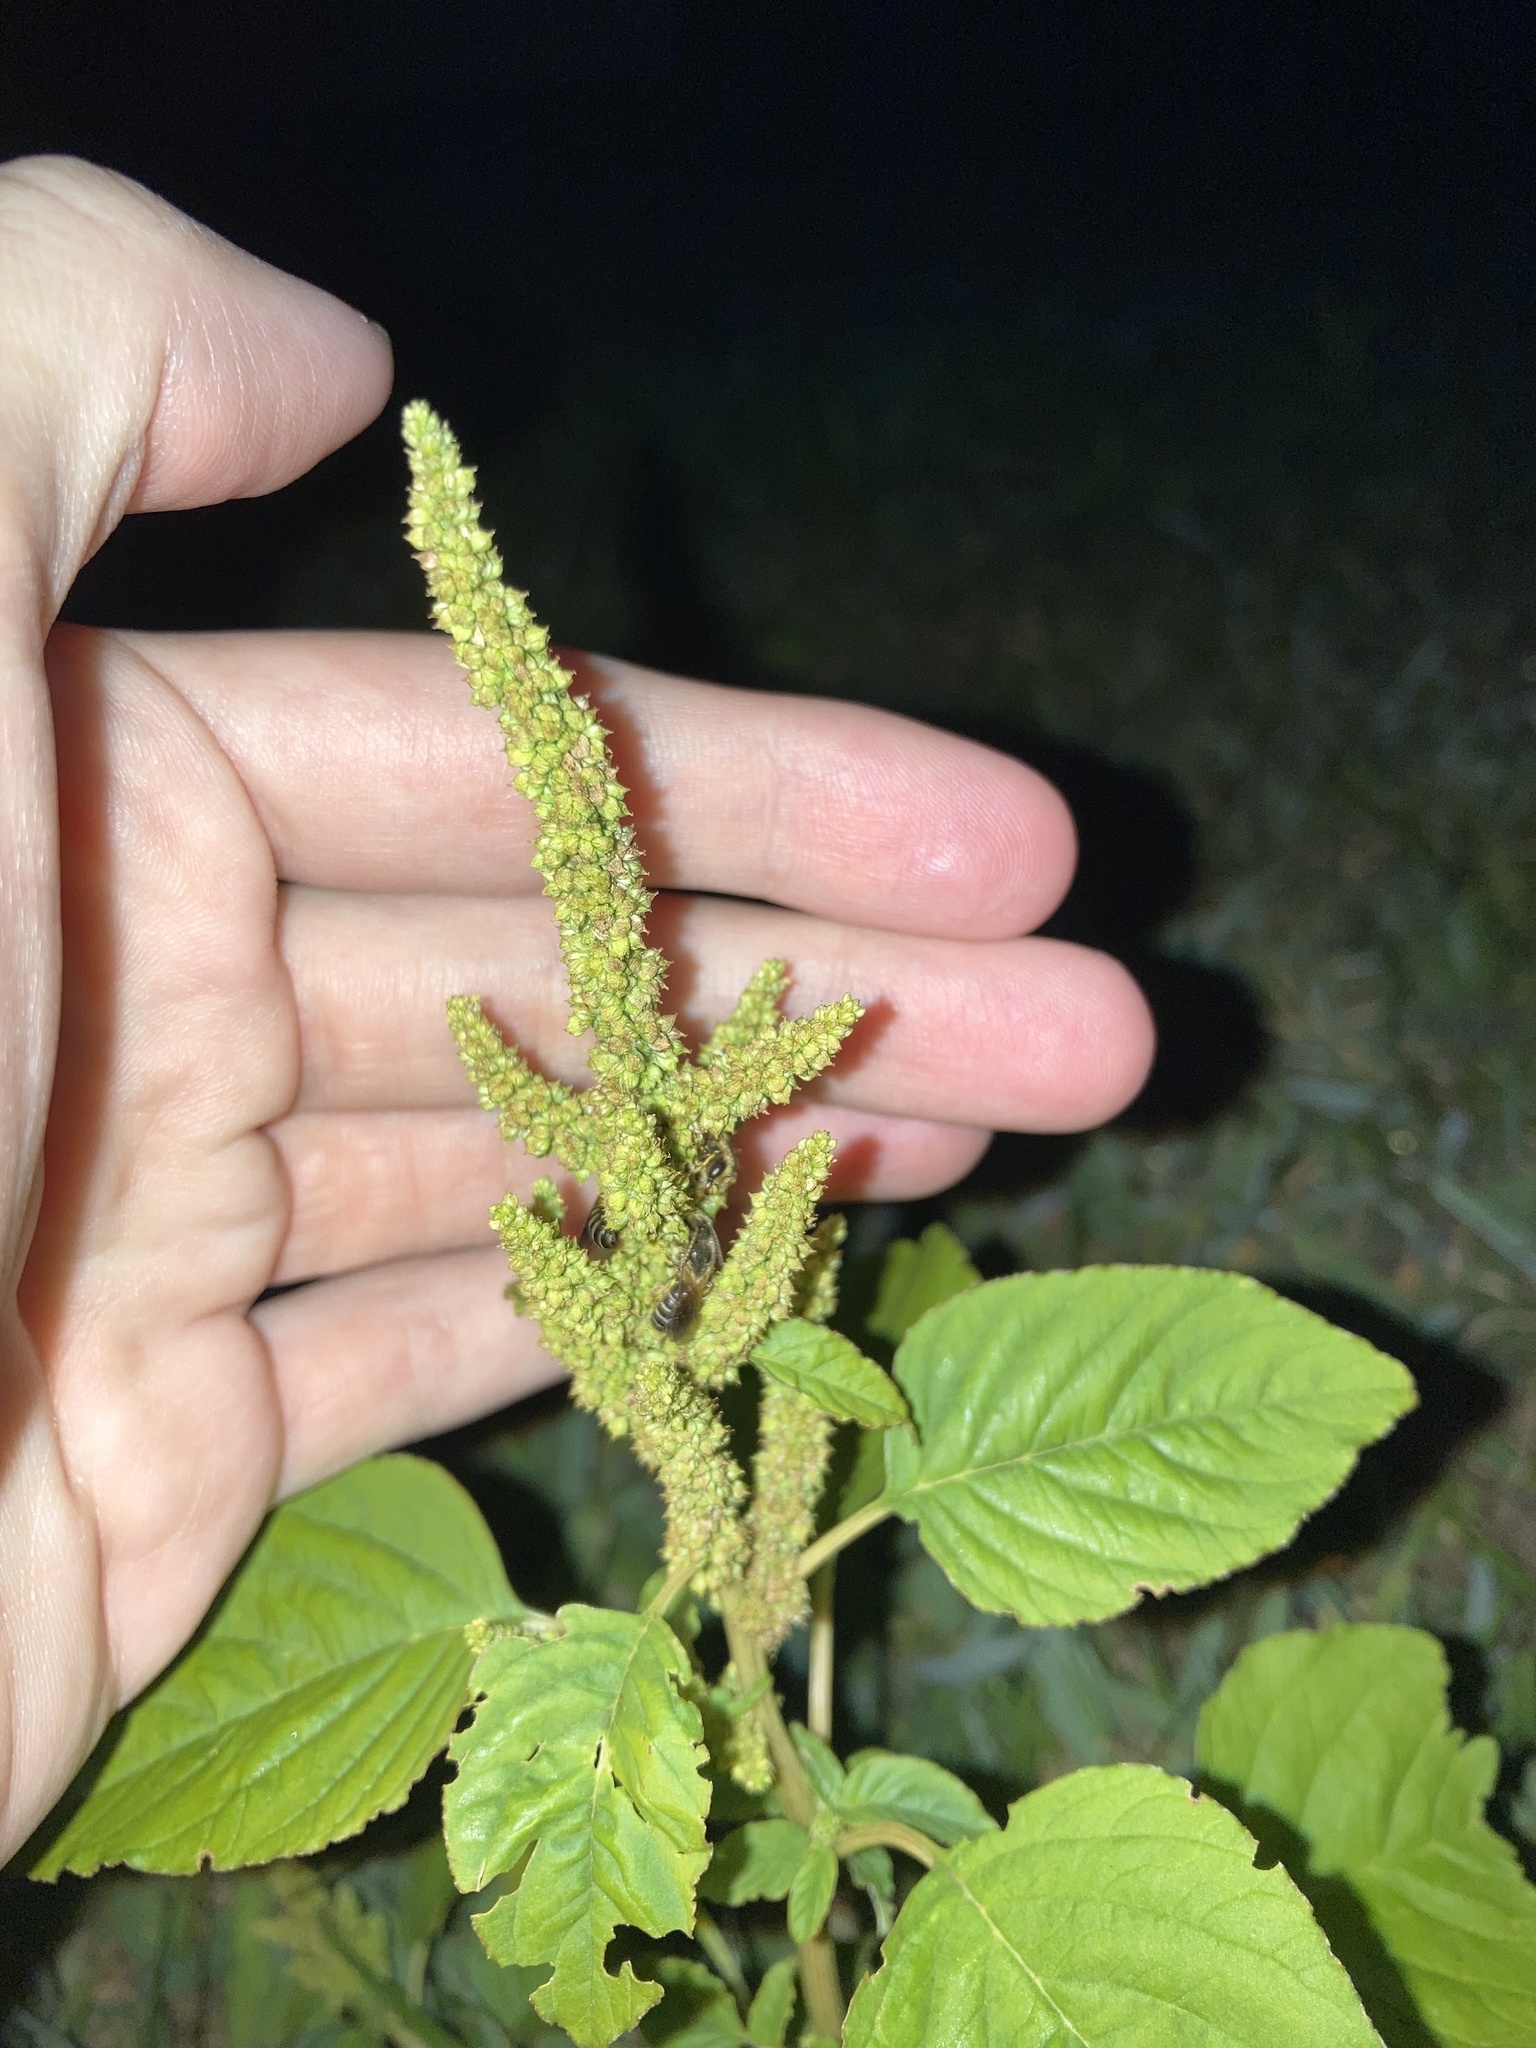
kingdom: Animalia
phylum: Arthropoda
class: Insecta
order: Hymenoptera
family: Halictidae
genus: Halictus
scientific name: Halictus poeyi
